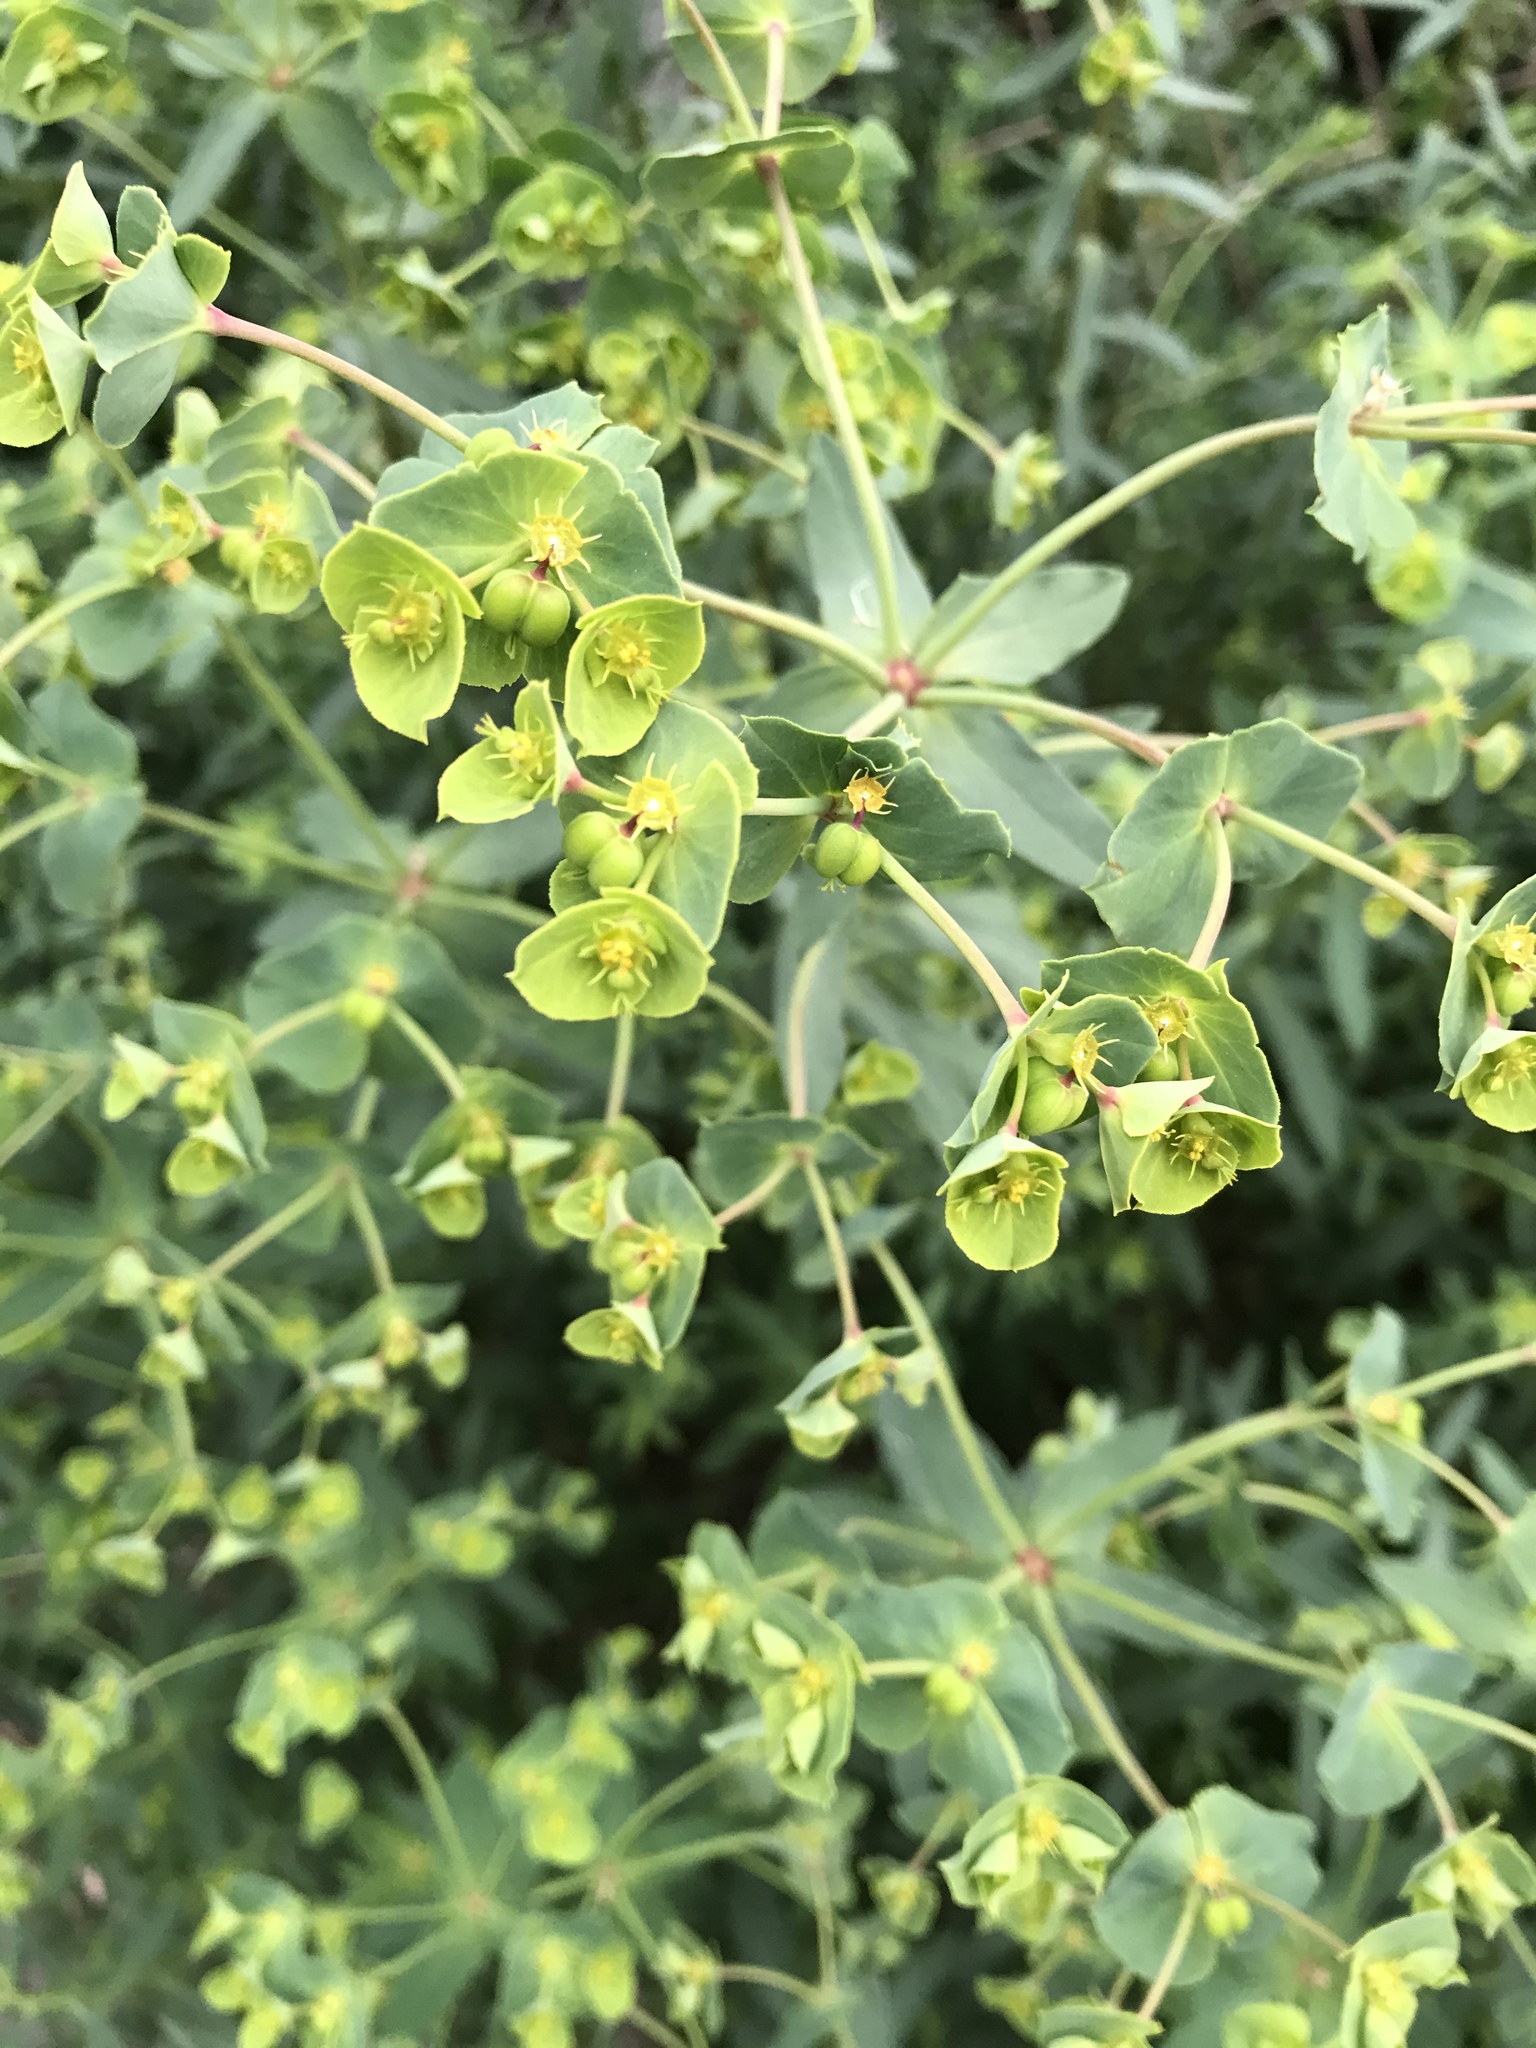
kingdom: Plantae
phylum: Tracheophyta
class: Magnoliopsida
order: Malpighiales
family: Euphorbiaceae
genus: Euphorbia
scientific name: Euphorbia terracina
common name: Geraldton carnation weed
